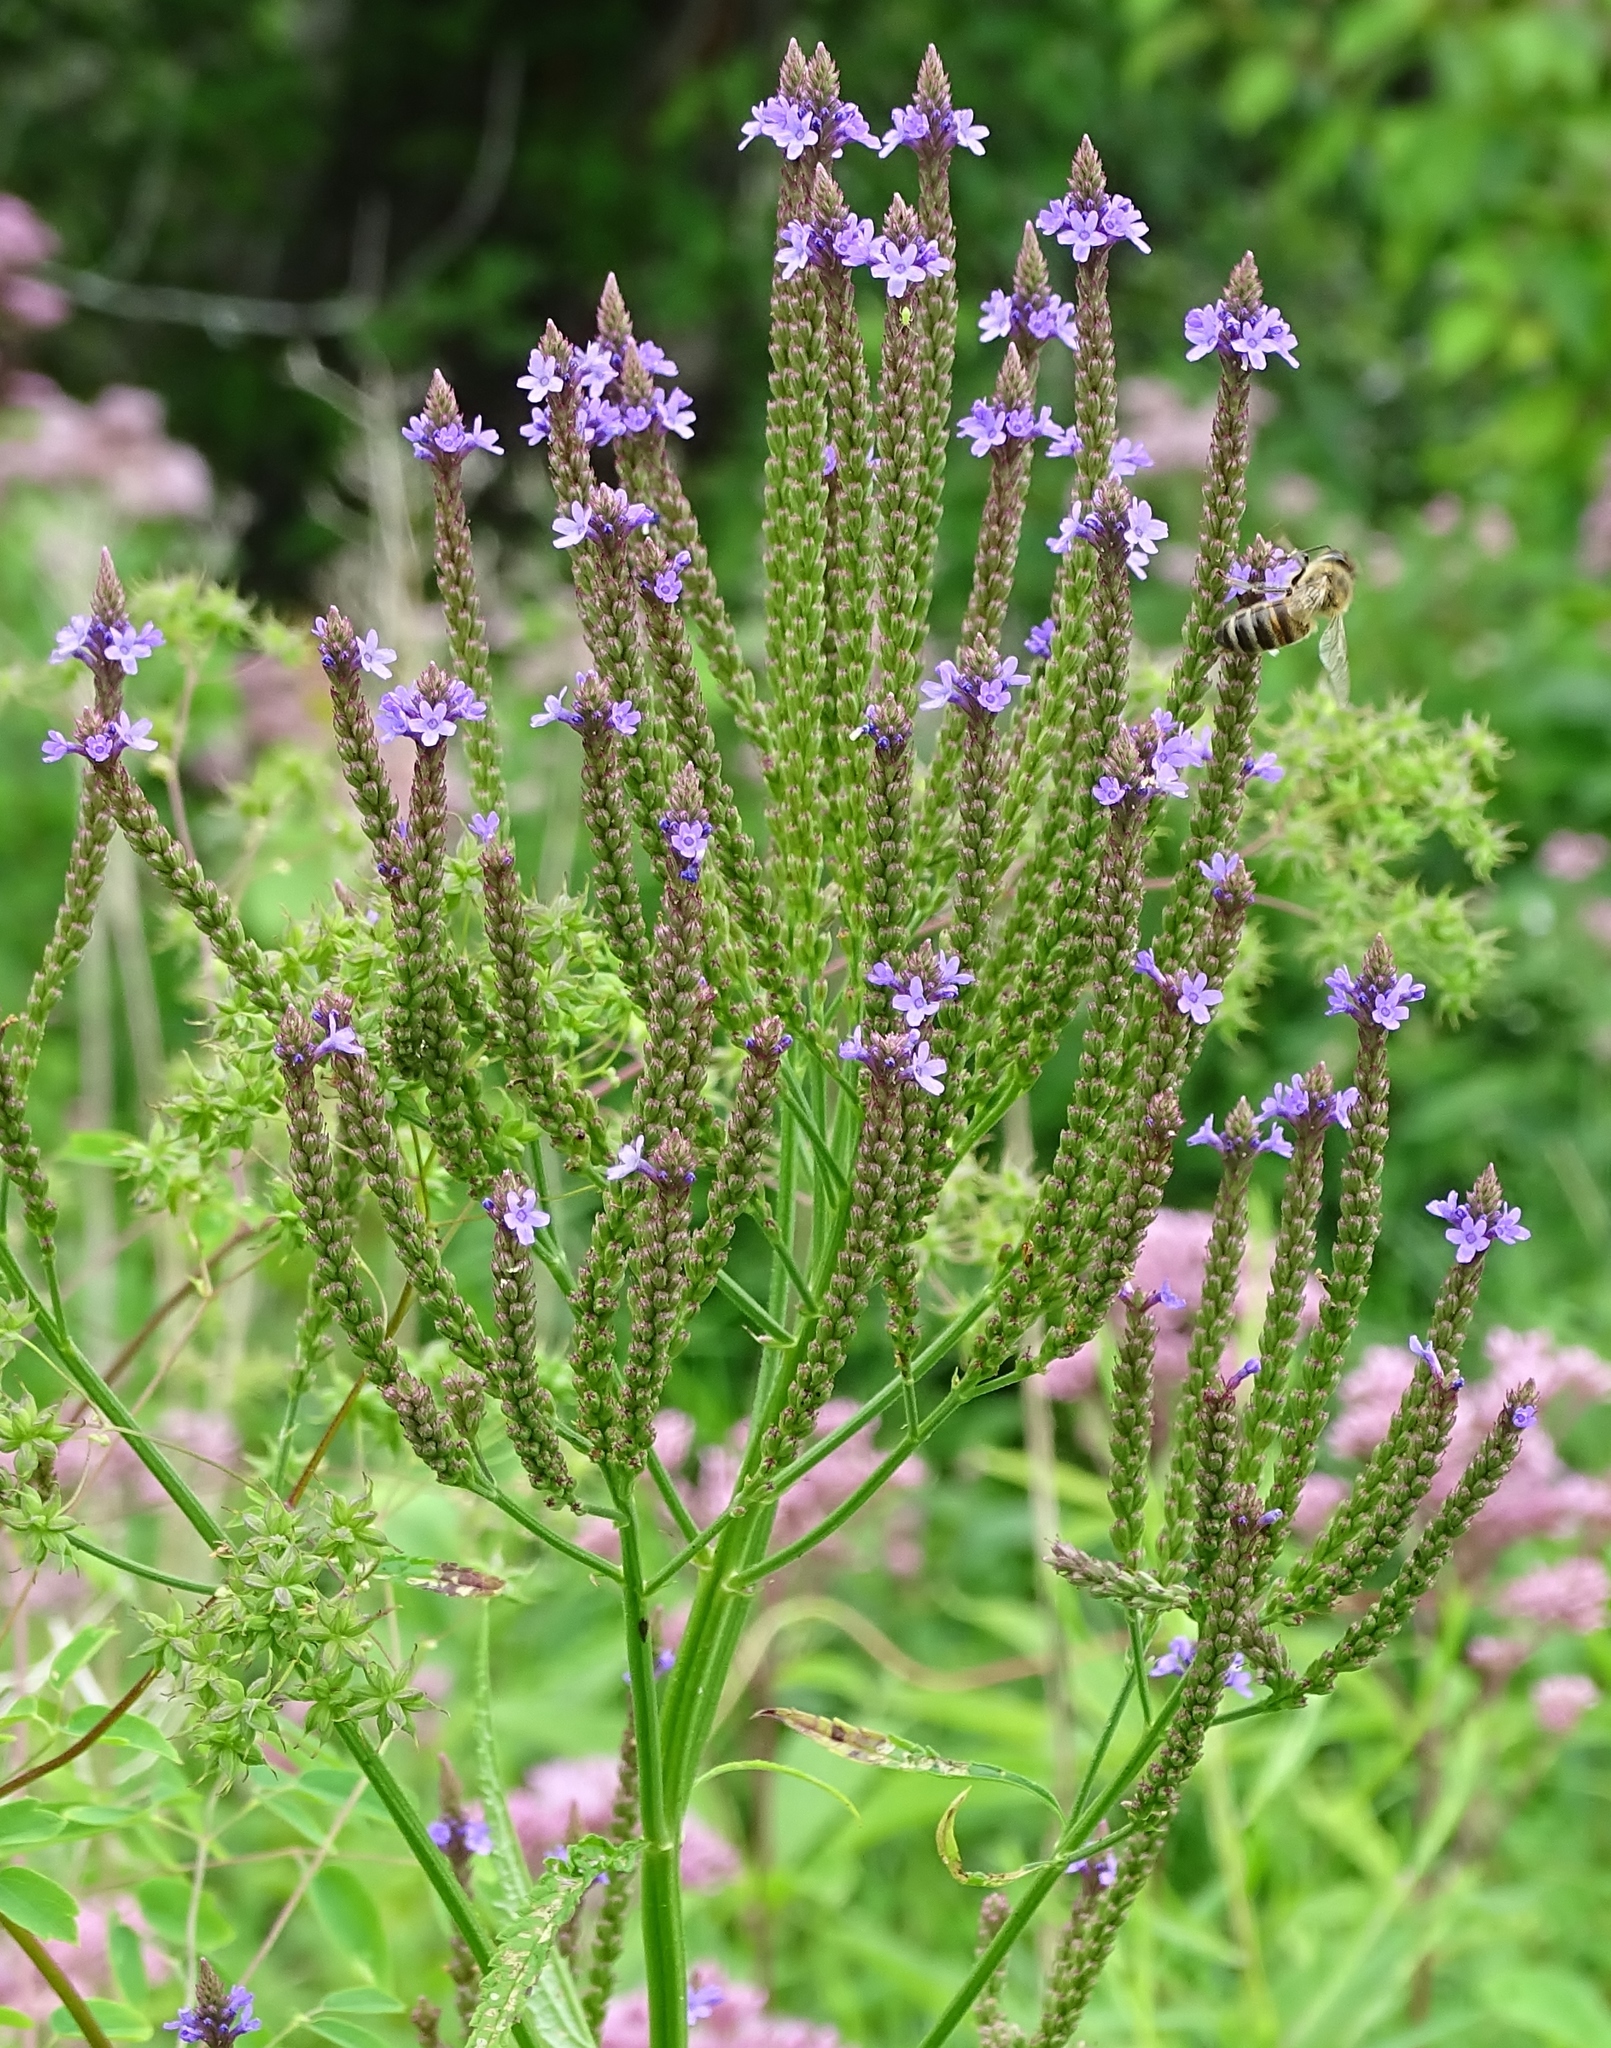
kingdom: Plantae
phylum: Tracheophyta
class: Magnoliopsida
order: Lamiales
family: Verbenaceae
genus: Verbena
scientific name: Verbena hastata
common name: American blue vervain
